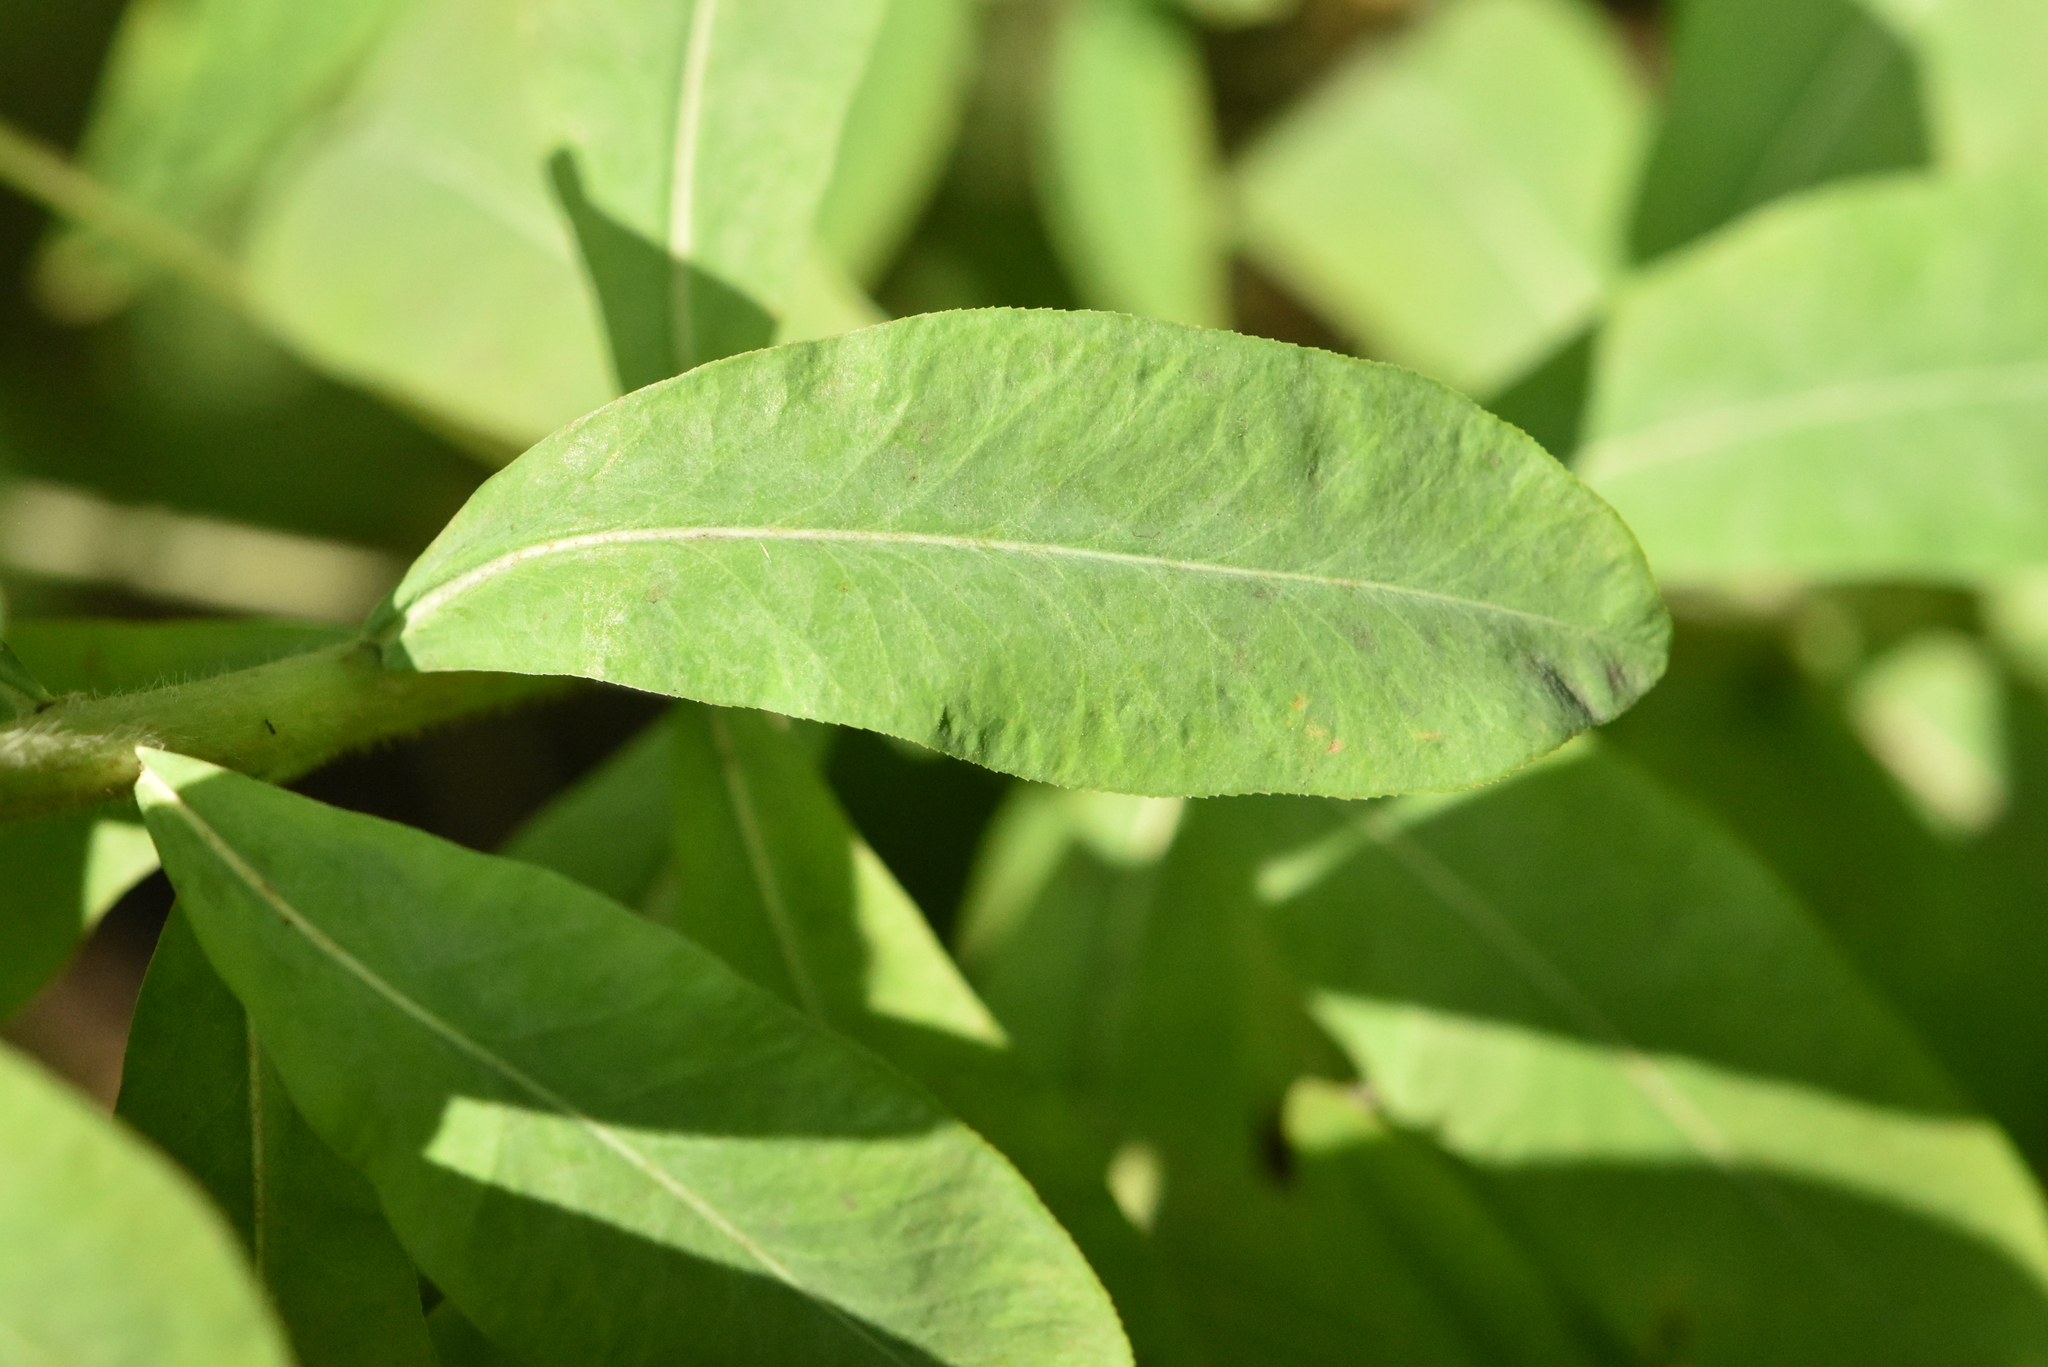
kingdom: Plantae
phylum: Tracheophyta
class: Magnoliopsida
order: Malpighiales
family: Euphorbiaceae
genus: Euphorbia
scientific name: Euphorbia pilosa
